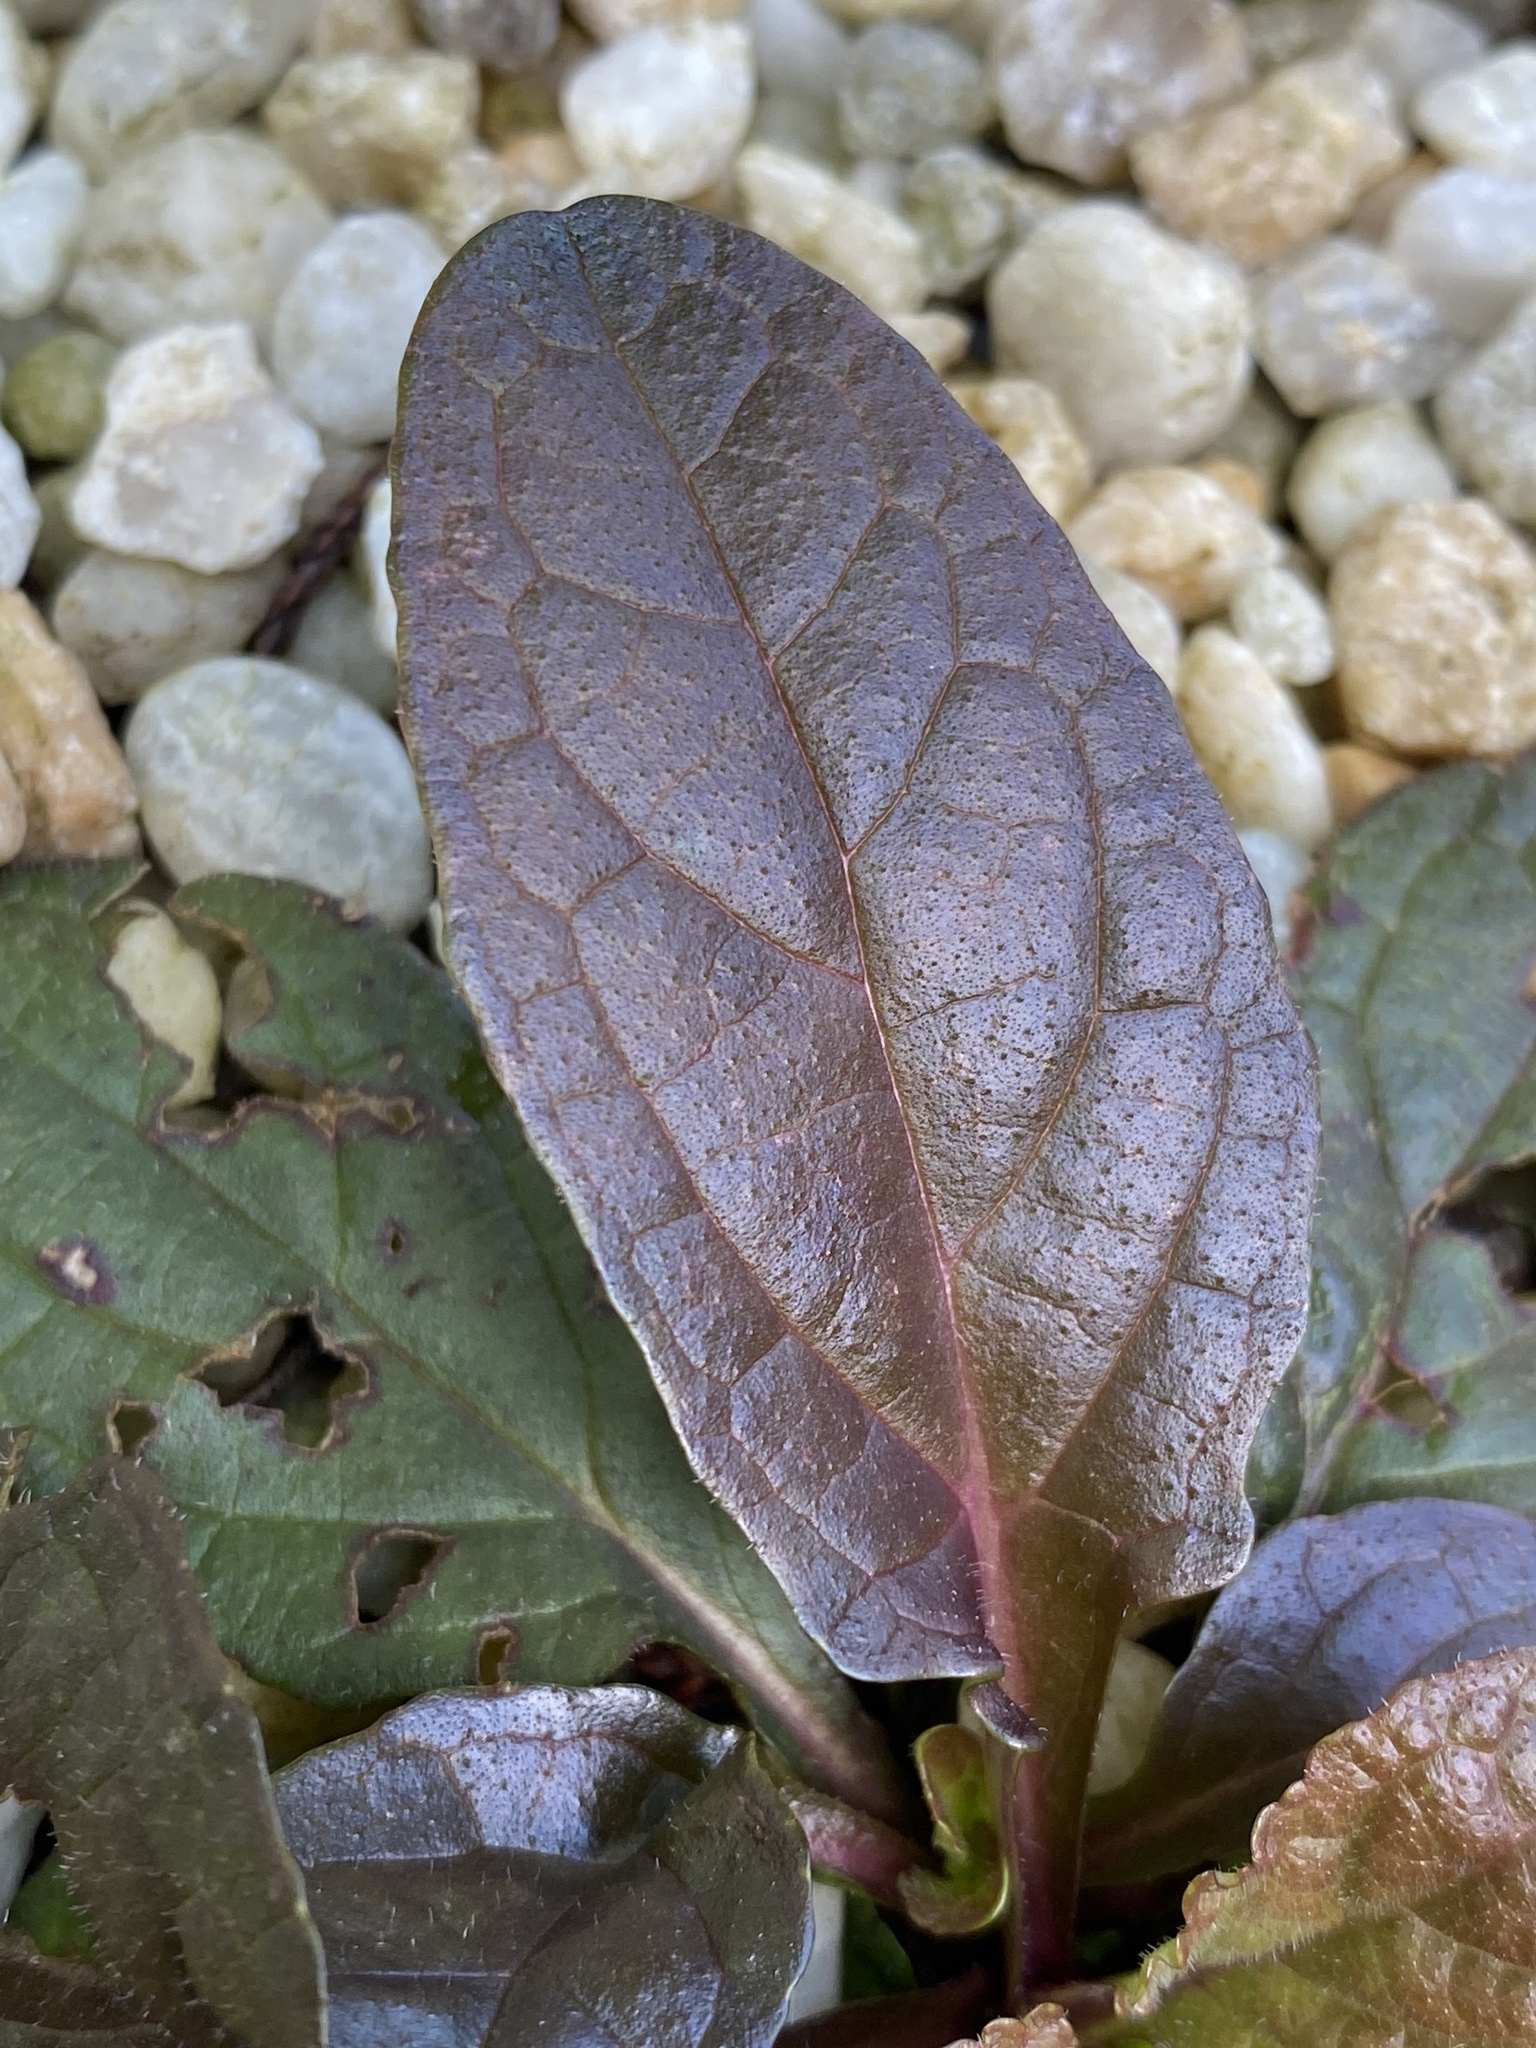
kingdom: Plantae
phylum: Tracheophyta
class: Magnoliopsida
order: Lamiales
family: Lamiaceae
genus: Ajuga
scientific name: Ajuga reptans
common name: Bugle
